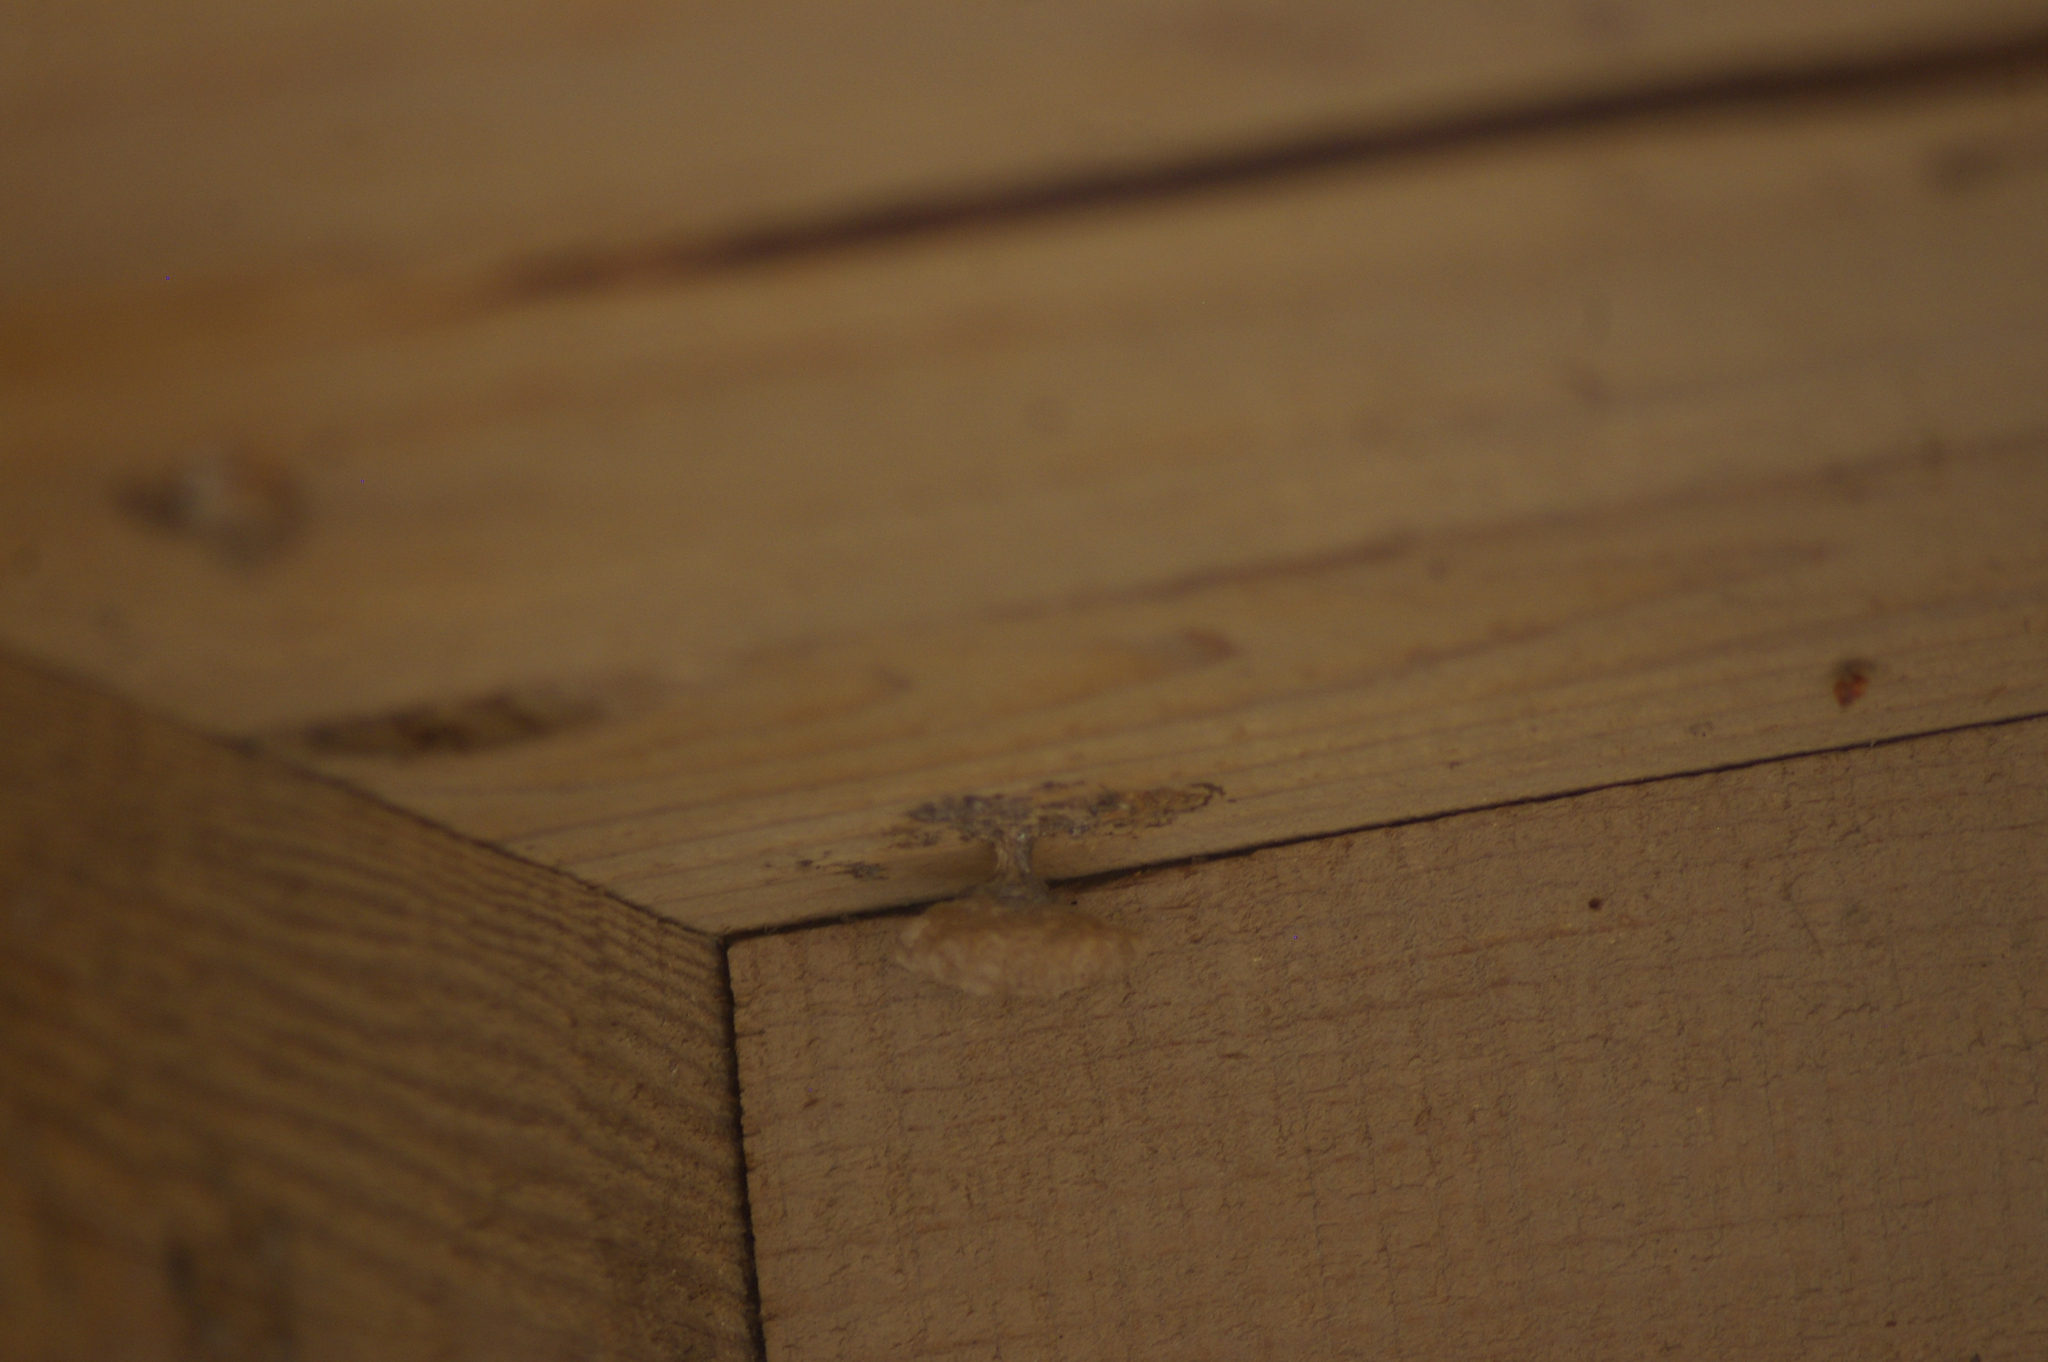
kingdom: Animalia
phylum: Arthropoda
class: Insecta
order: Hymenoptera
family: Vespidae
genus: Mischocyttarus
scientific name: Mischocyttarus flavitarsis
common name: Wasp
